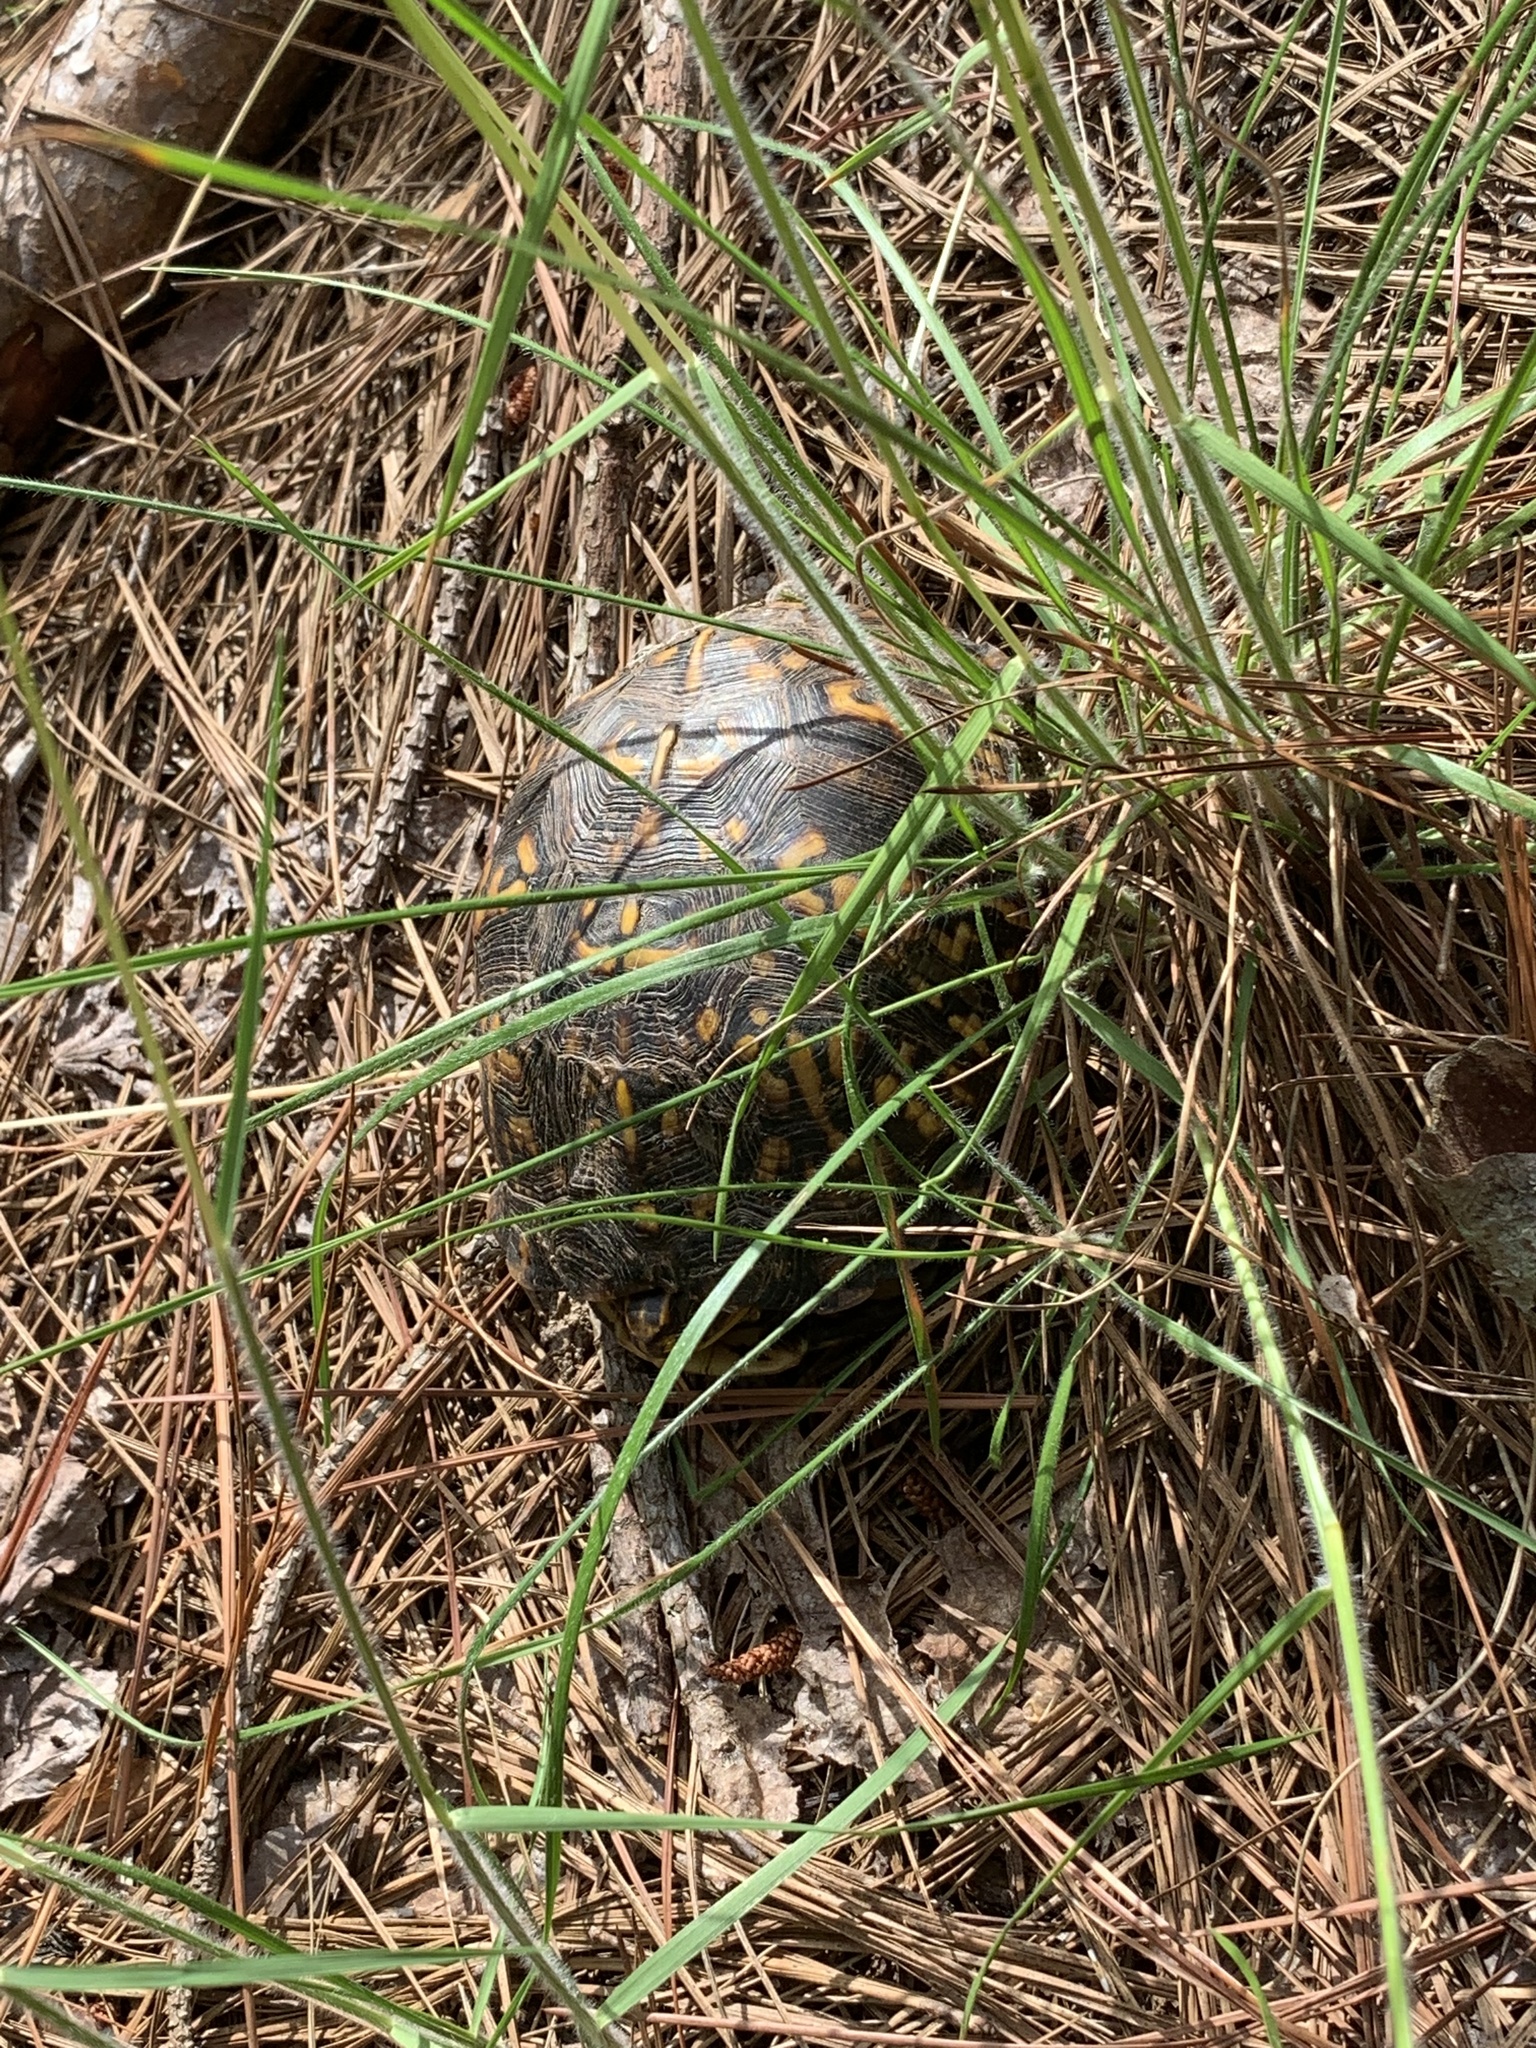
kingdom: Animalia
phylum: Chordata
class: Testudines
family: Emydidae
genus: Terrapene
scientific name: Terrapene carolina
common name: Common box turtle
